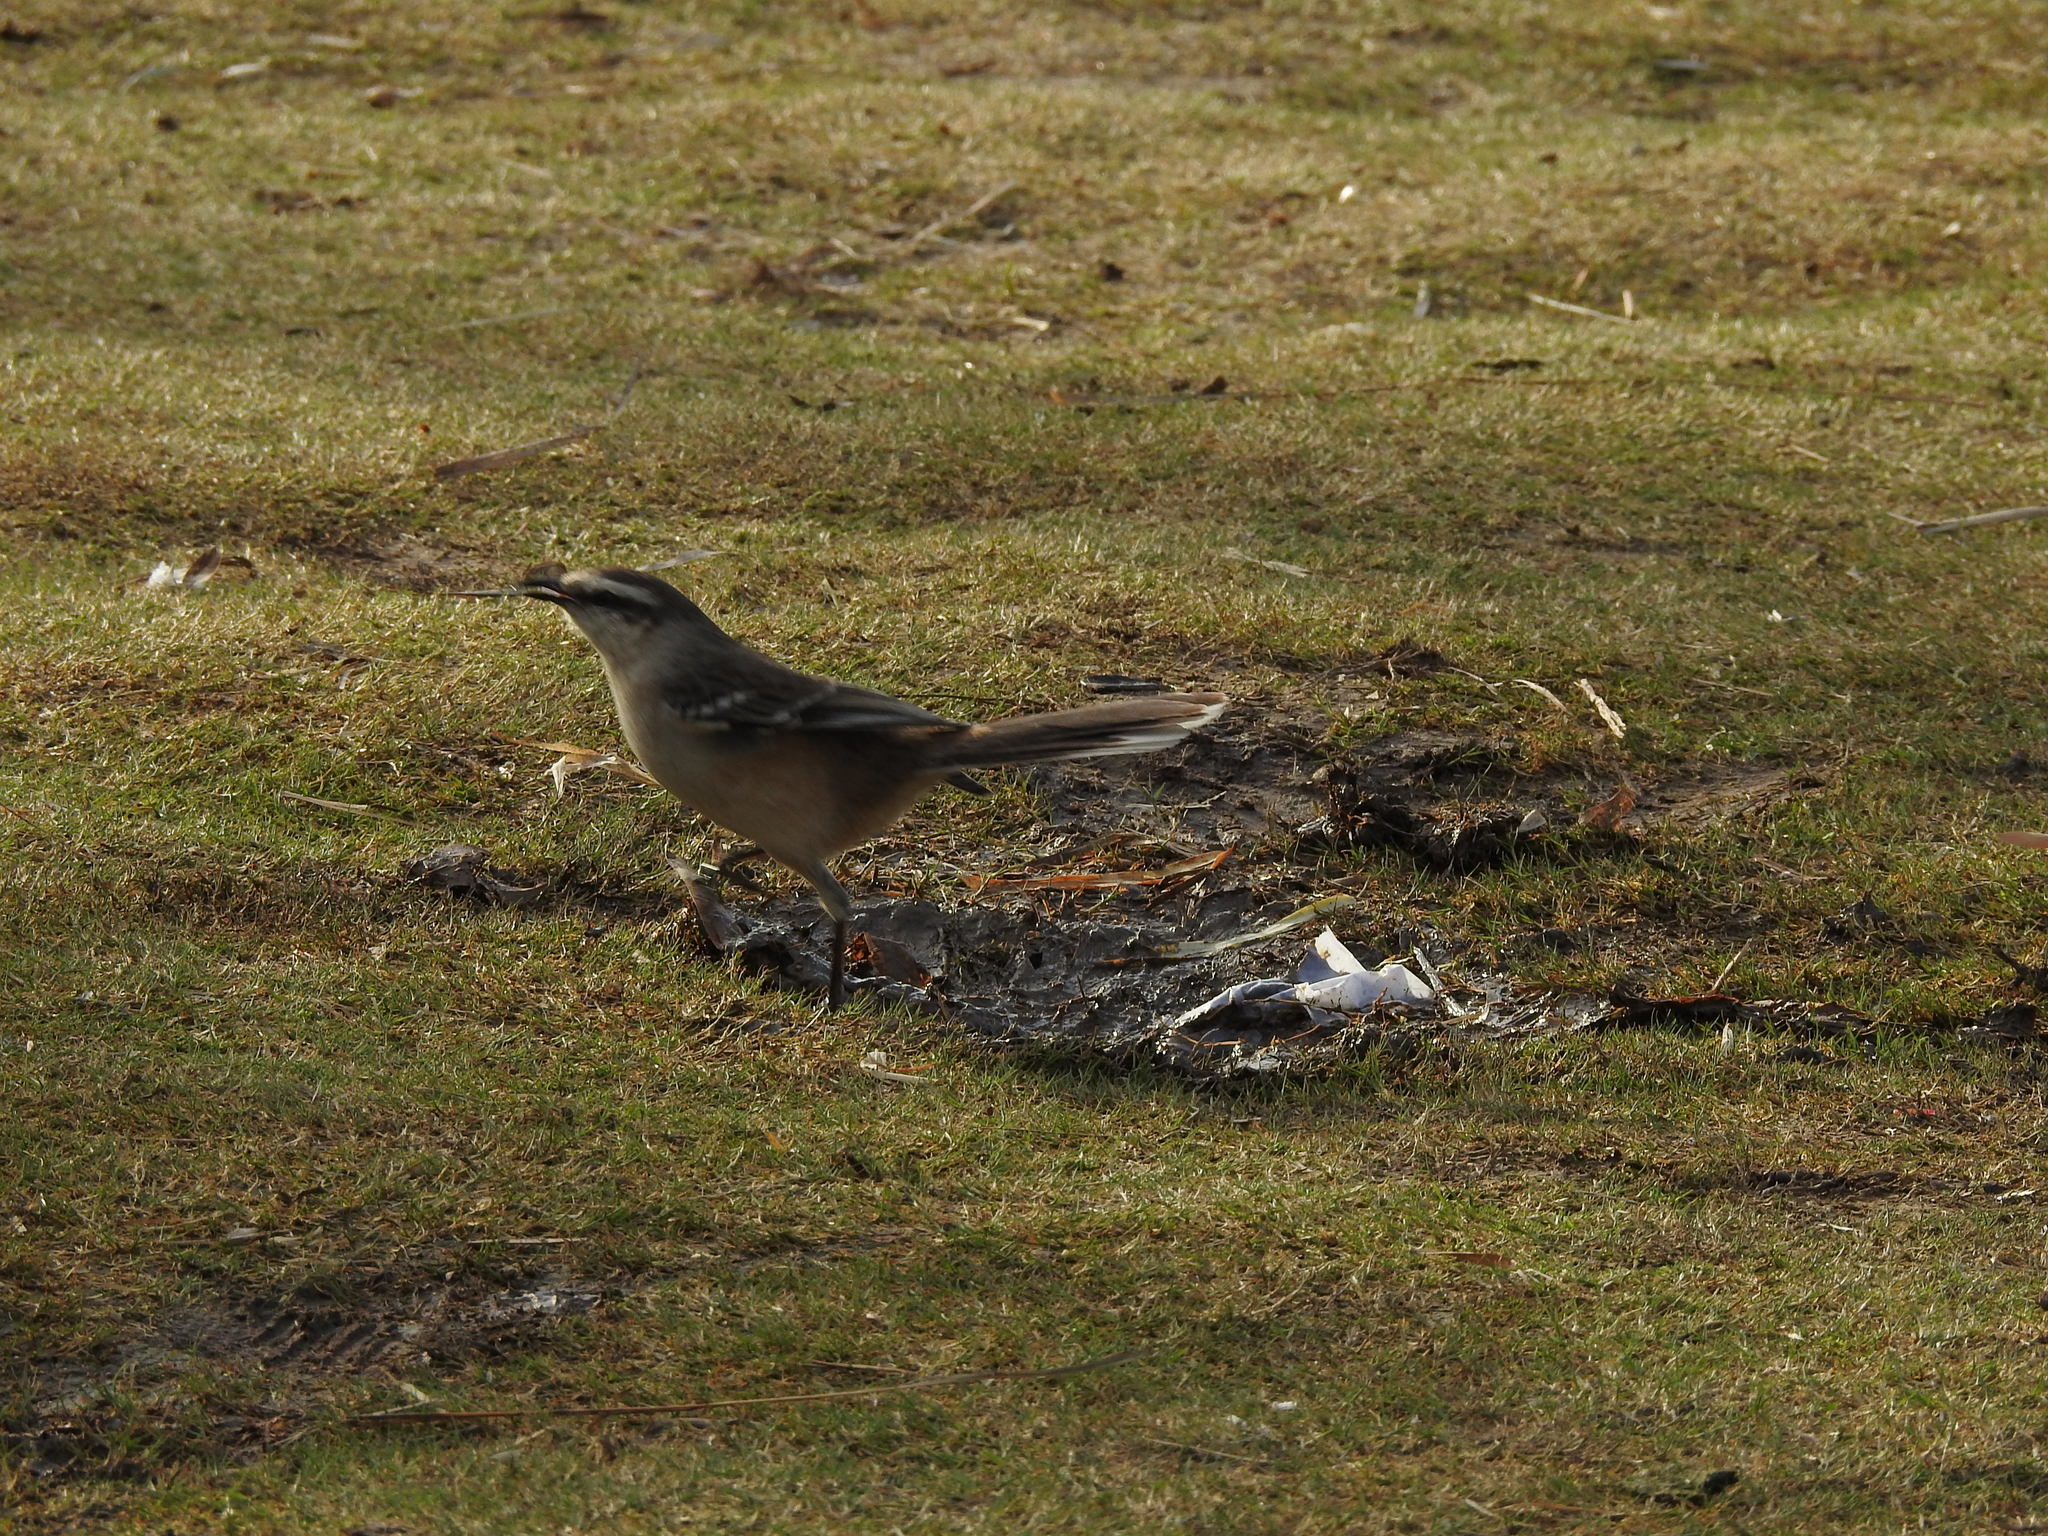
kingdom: Animalia
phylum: Chordata
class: Aves
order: Passeriformes
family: Mimidae
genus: Mimus
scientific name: Mimus saturninus
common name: Chalk-browed mockingbird
